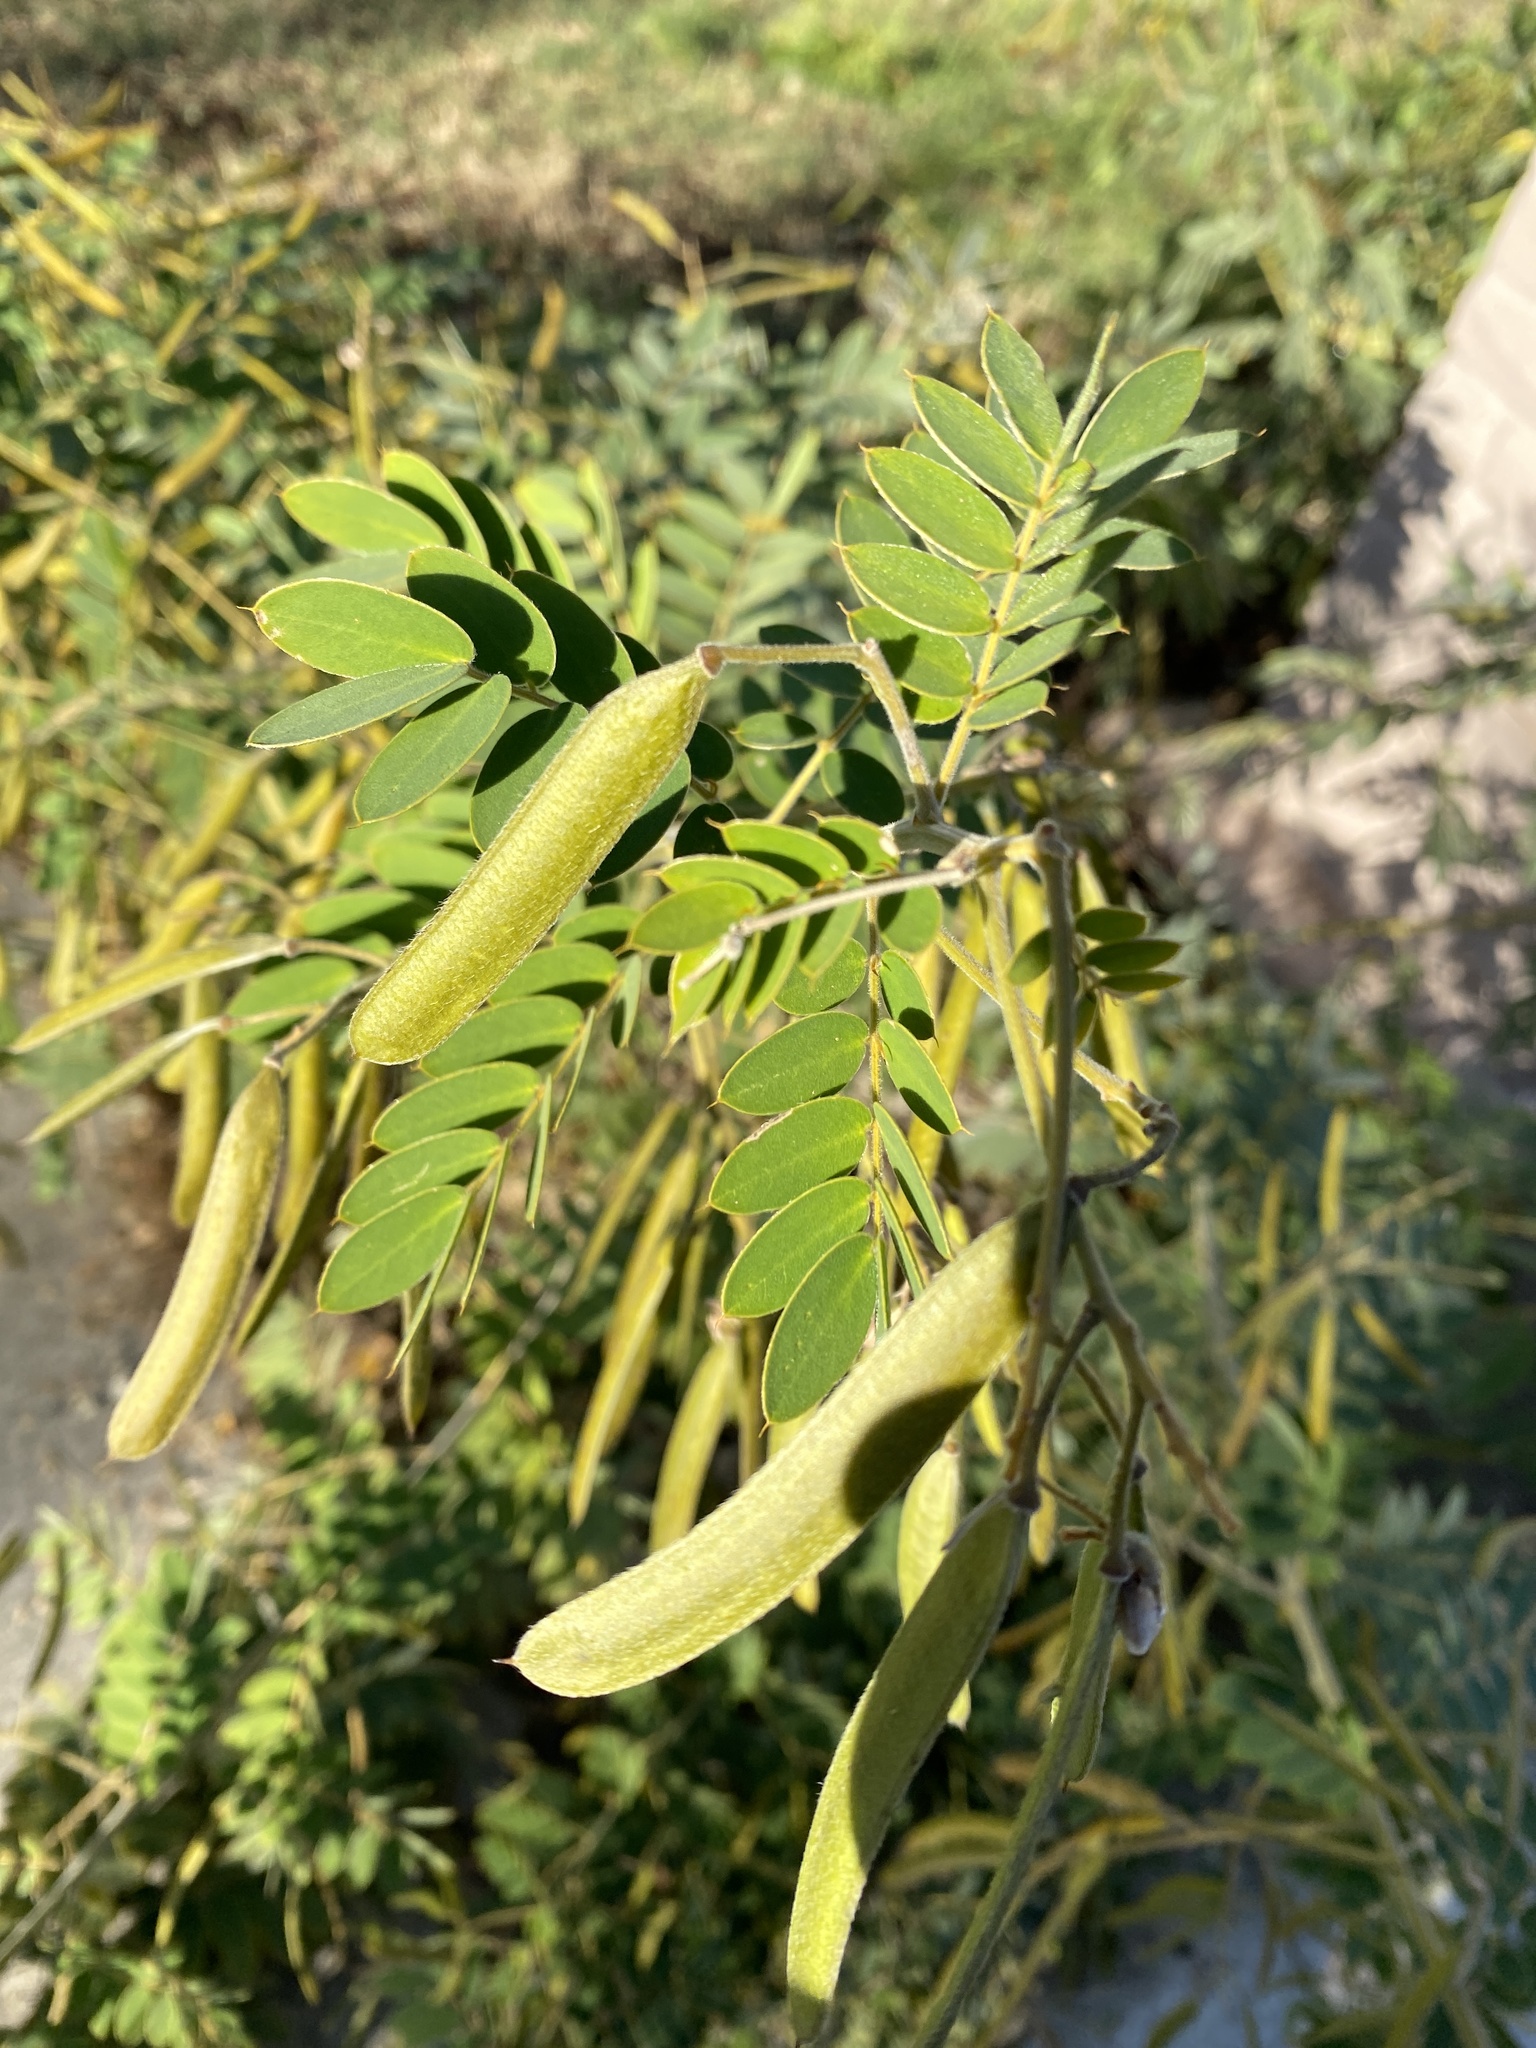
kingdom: Plantae
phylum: Tracheophyta
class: Magnoliopsida
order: Fabales
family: Fabaceae
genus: Senna
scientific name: Senna lindheimeriana
